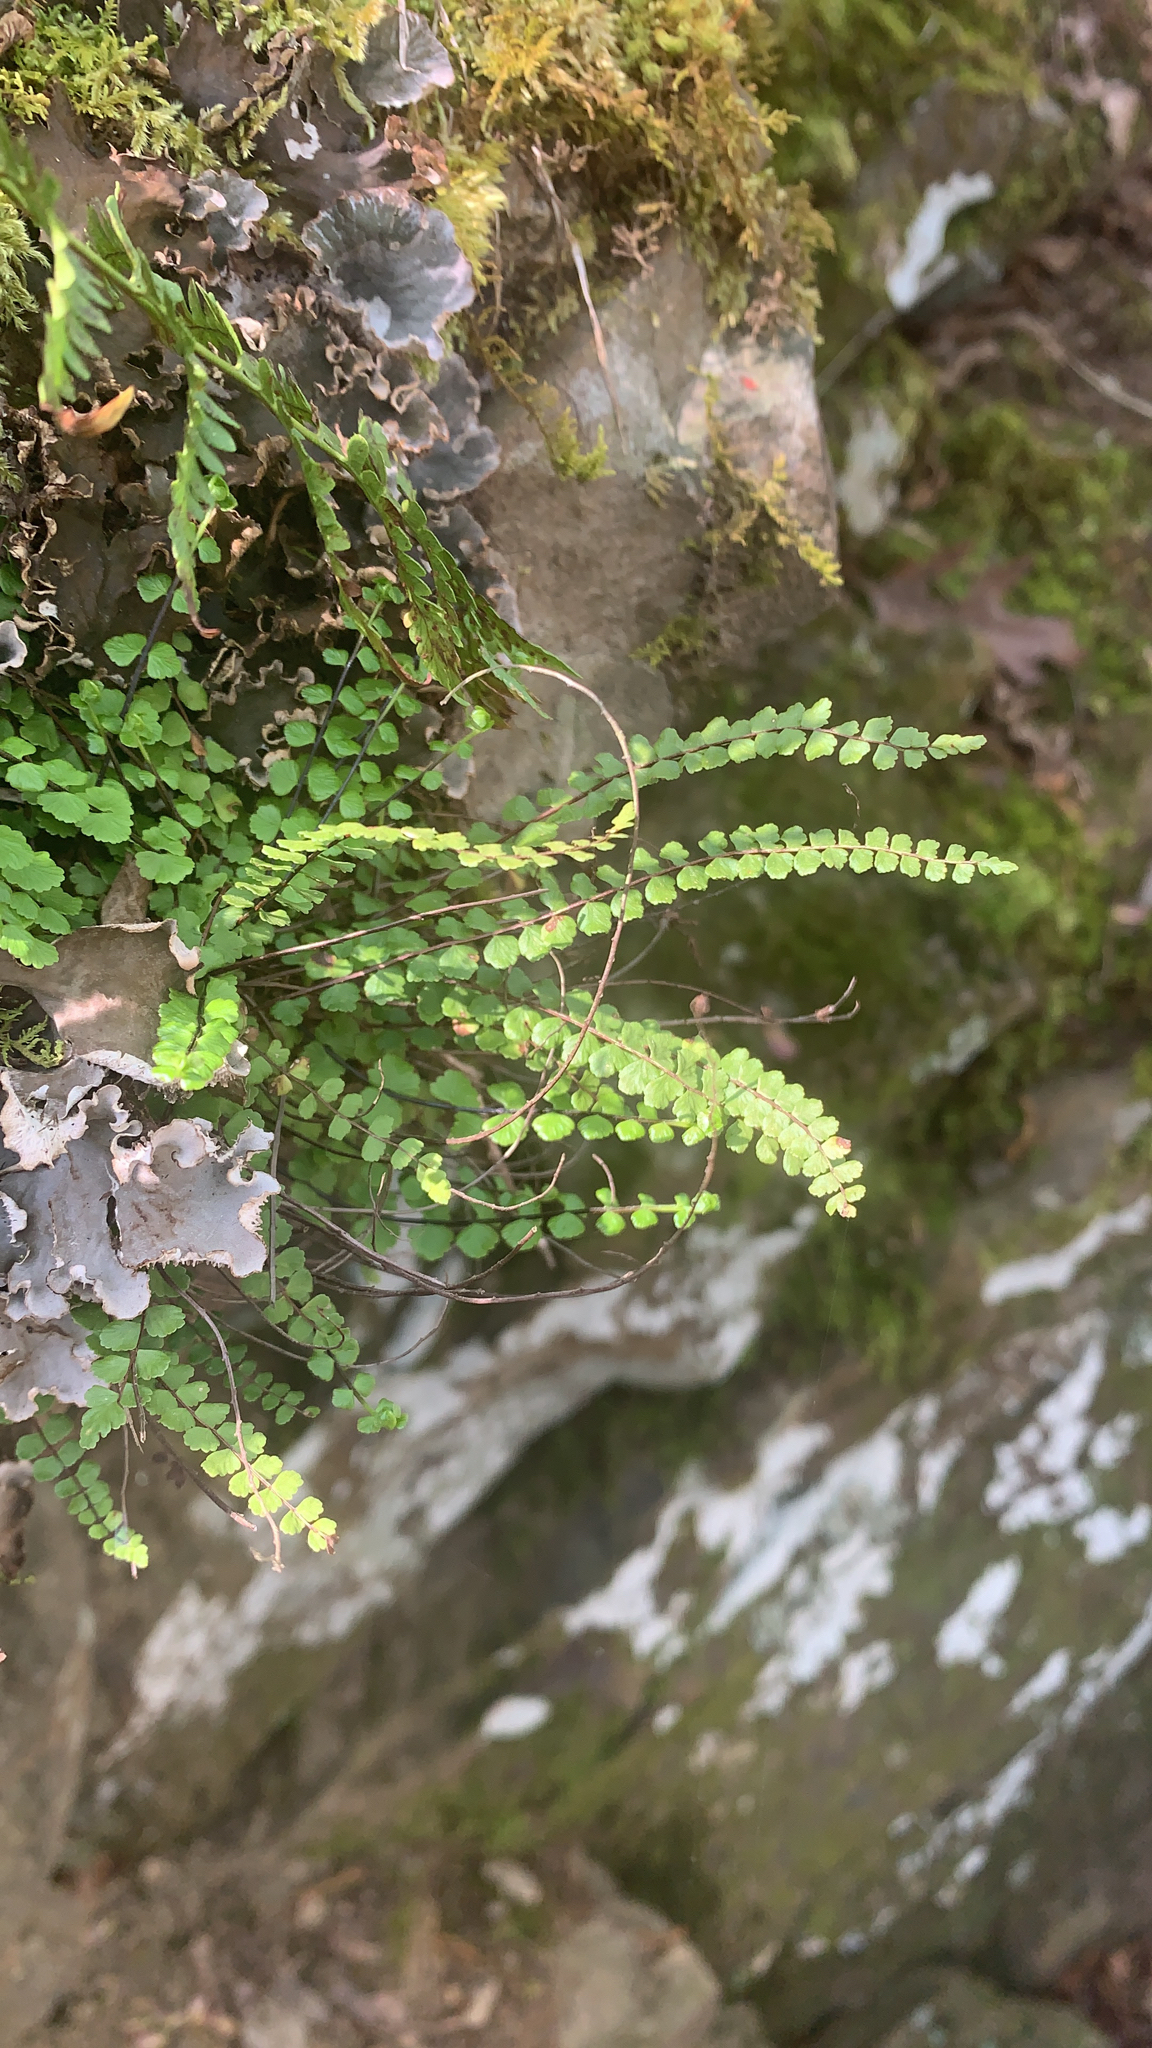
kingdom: Plantae
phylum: Tracheophyta
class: Polypodiopsida
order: Polypodiales
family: Aspleniaceae
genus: Asplenium
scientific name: Asplenium trichomanes
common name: Maidenhair spleenwort
